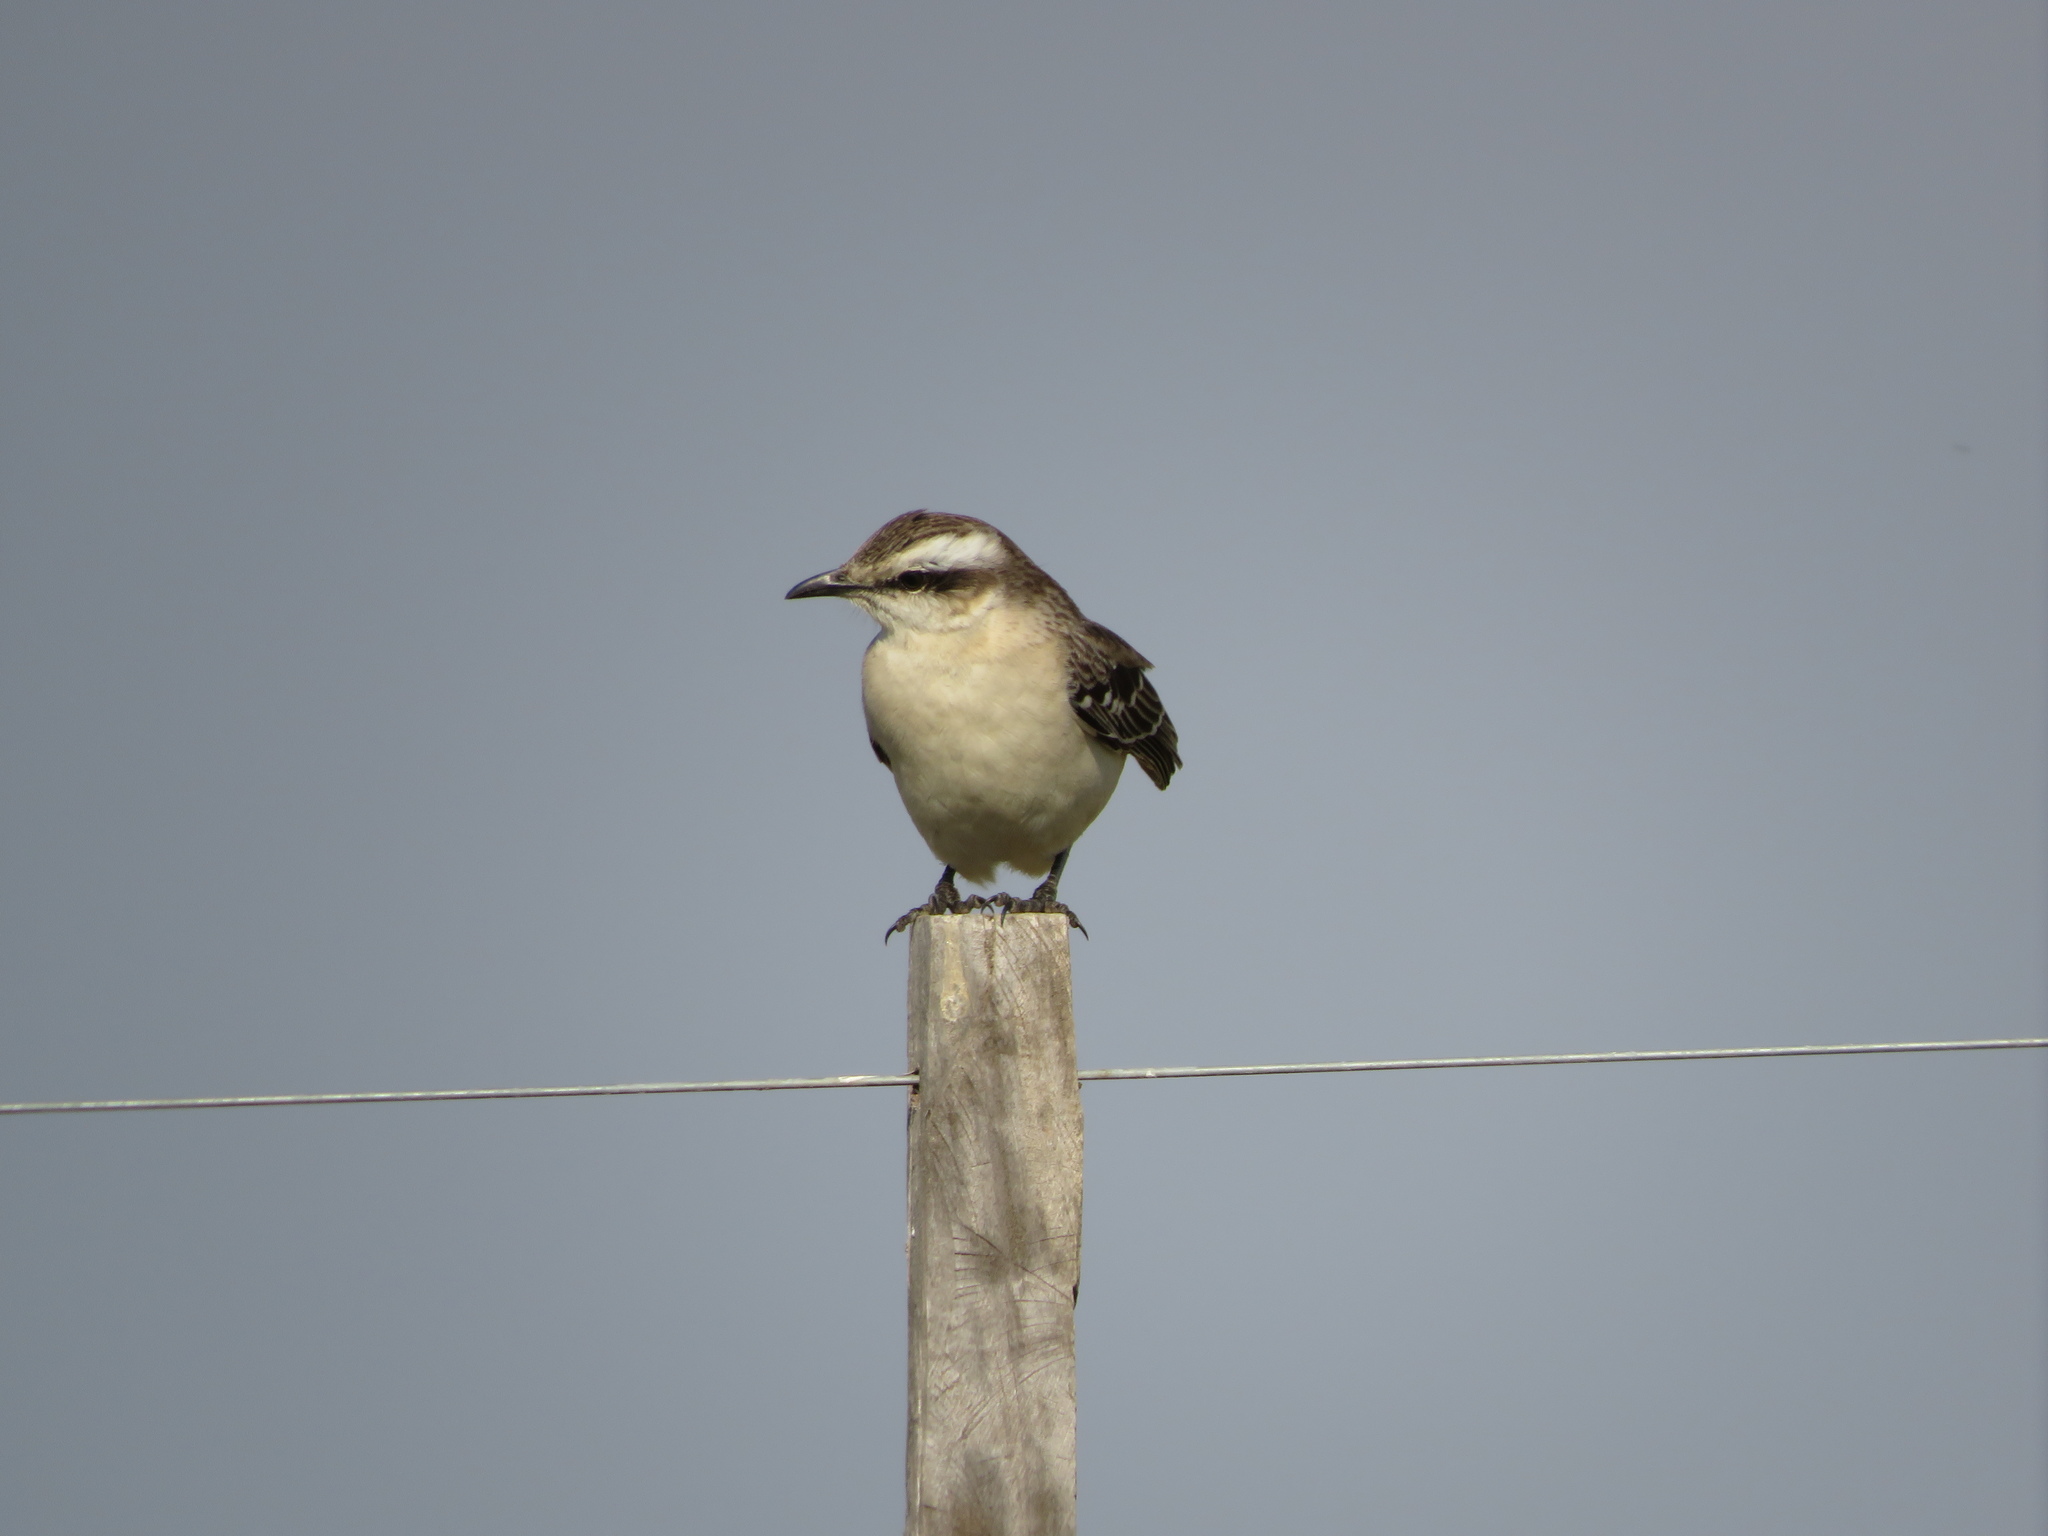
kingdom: Animalia
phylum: Chordata
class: Aves
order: Passeriformes
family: Mimidae
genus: Mimus
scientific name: Mimus saturninus
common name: Chalk-browed mockingbird
